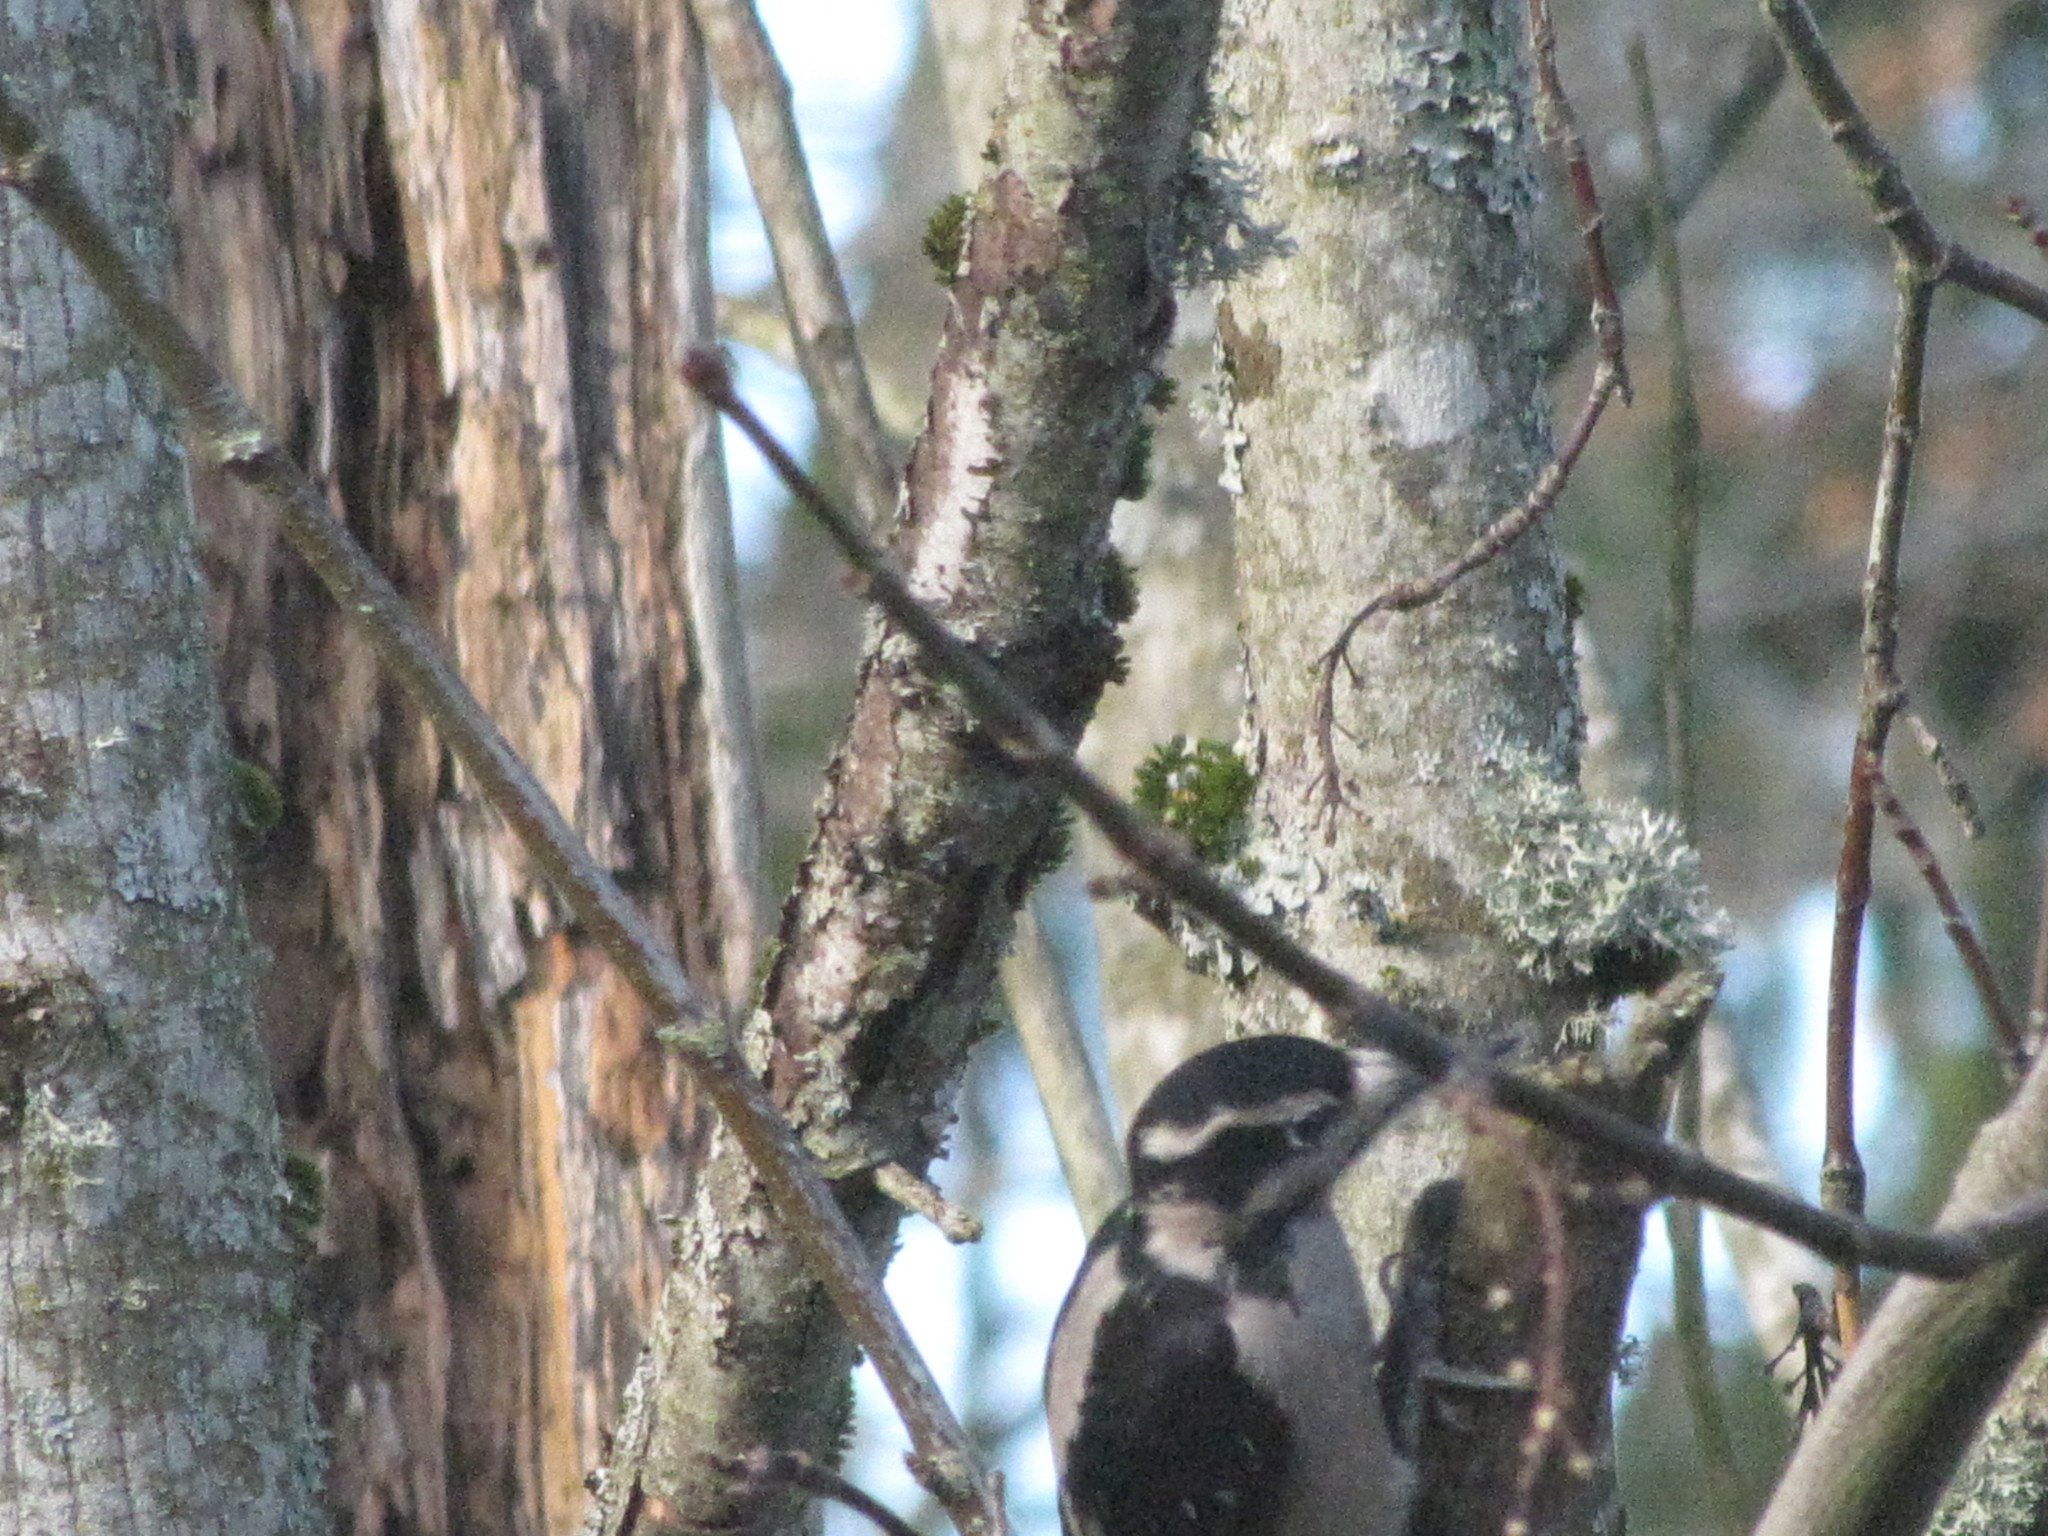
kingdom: Animalia
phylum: Chordata
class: Aves
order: Piciformes
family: Picidae
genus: Leuconotopicus
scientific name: Leuconotopicus villosus
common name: Hairy woodpecker
